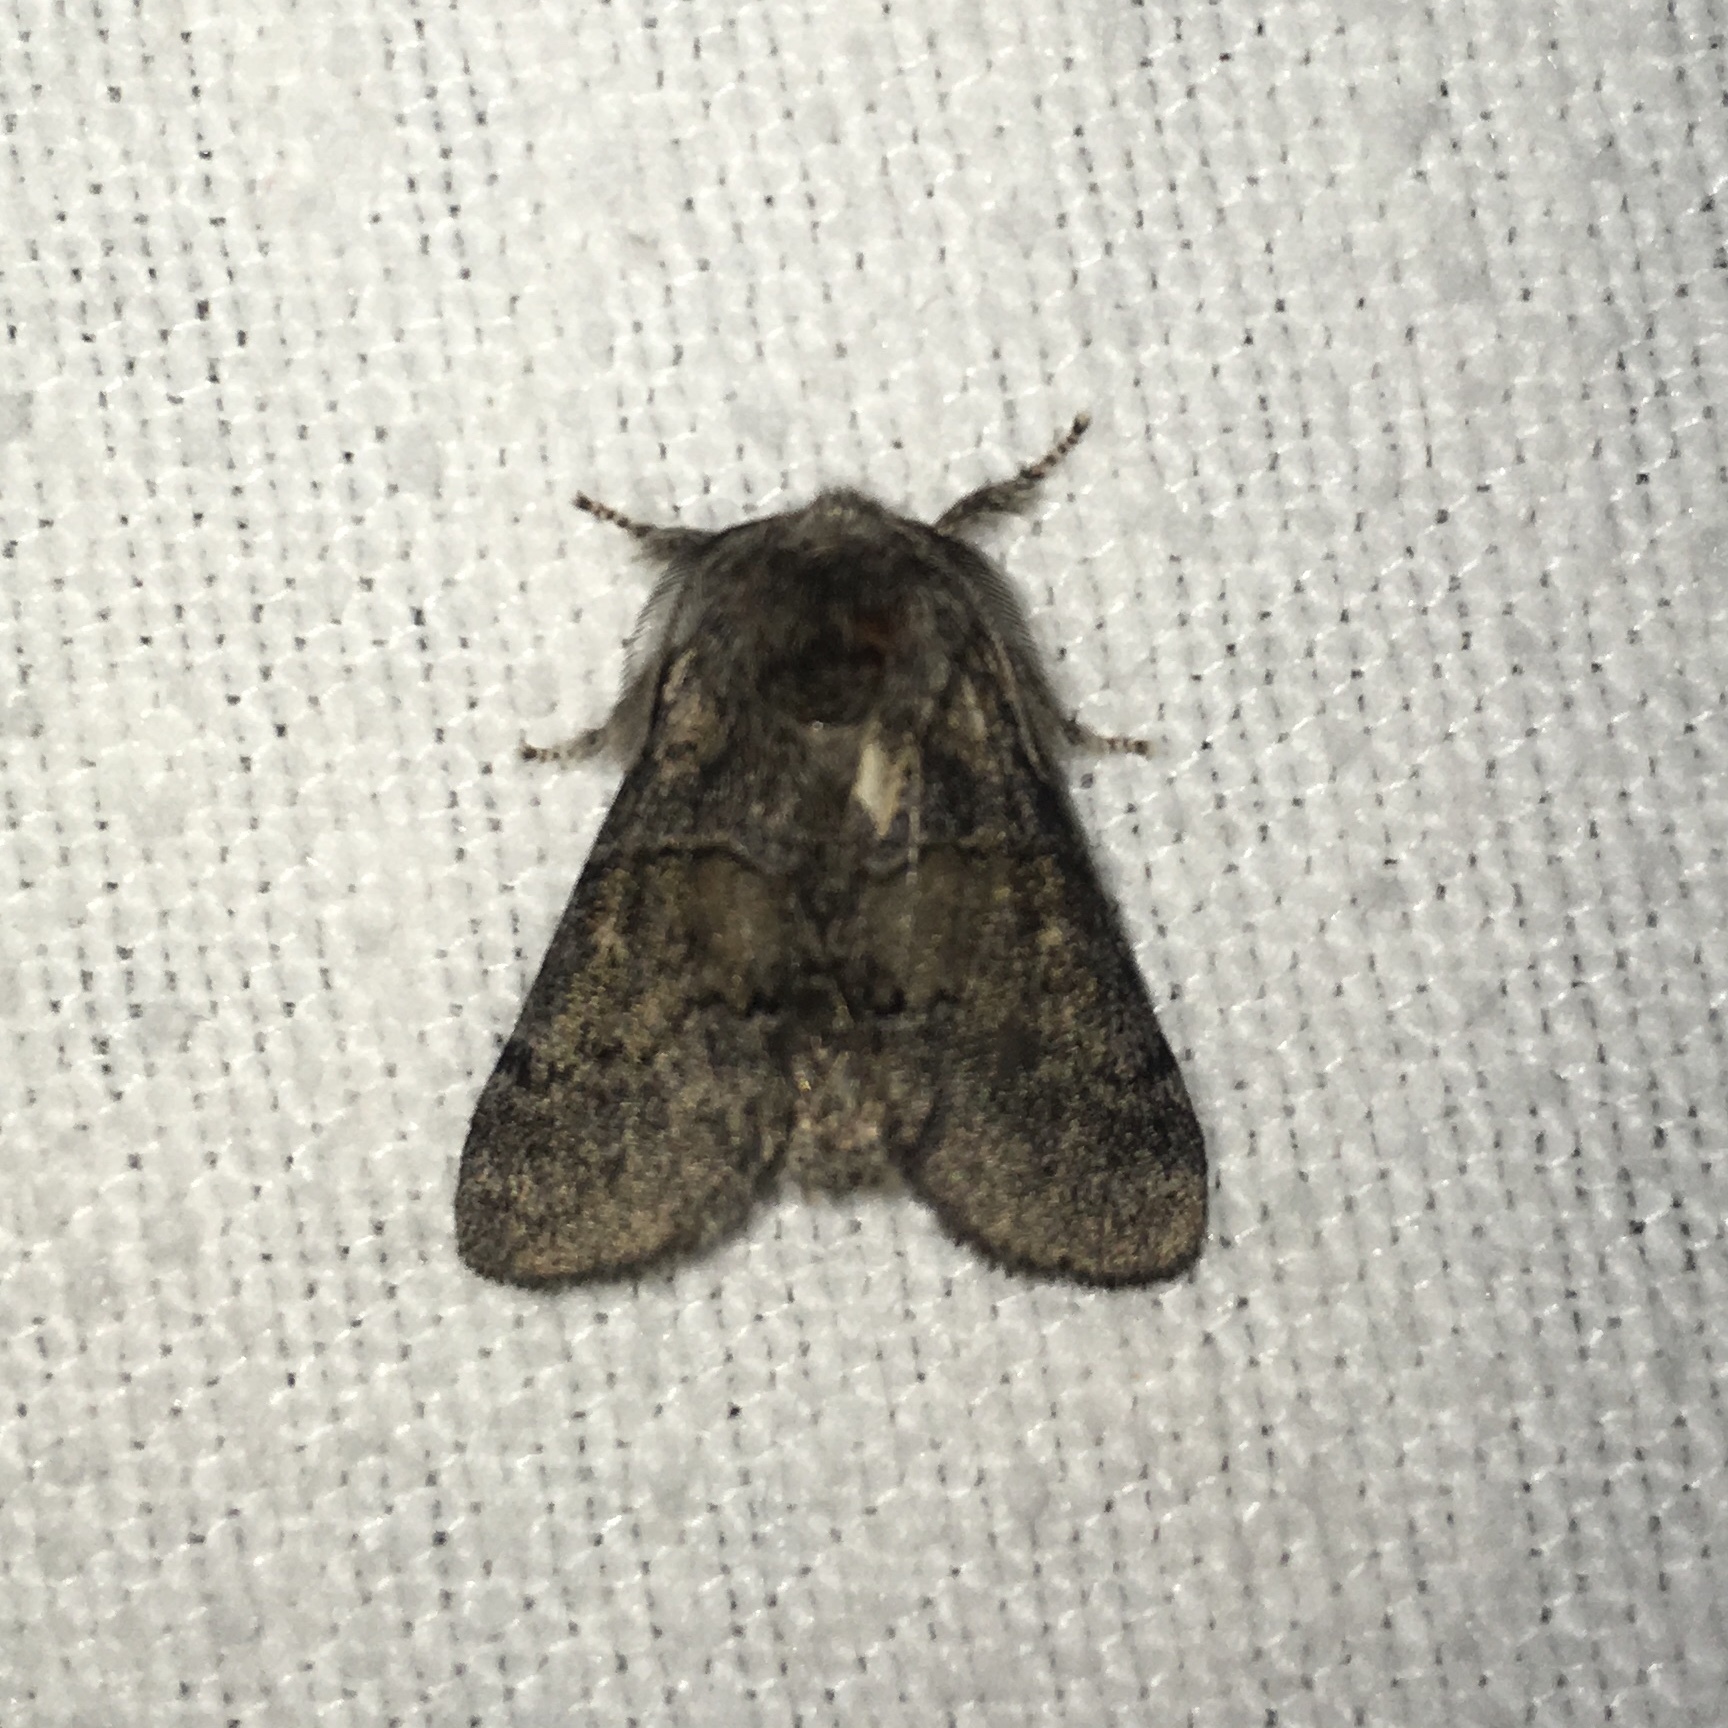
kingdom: Animalia
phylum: Arthropoda
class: Insecta
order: Lepidoptera
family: Notodontidae
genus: Gluphisia
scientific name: Gluphisia septentrionis
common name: Common gluphisia
